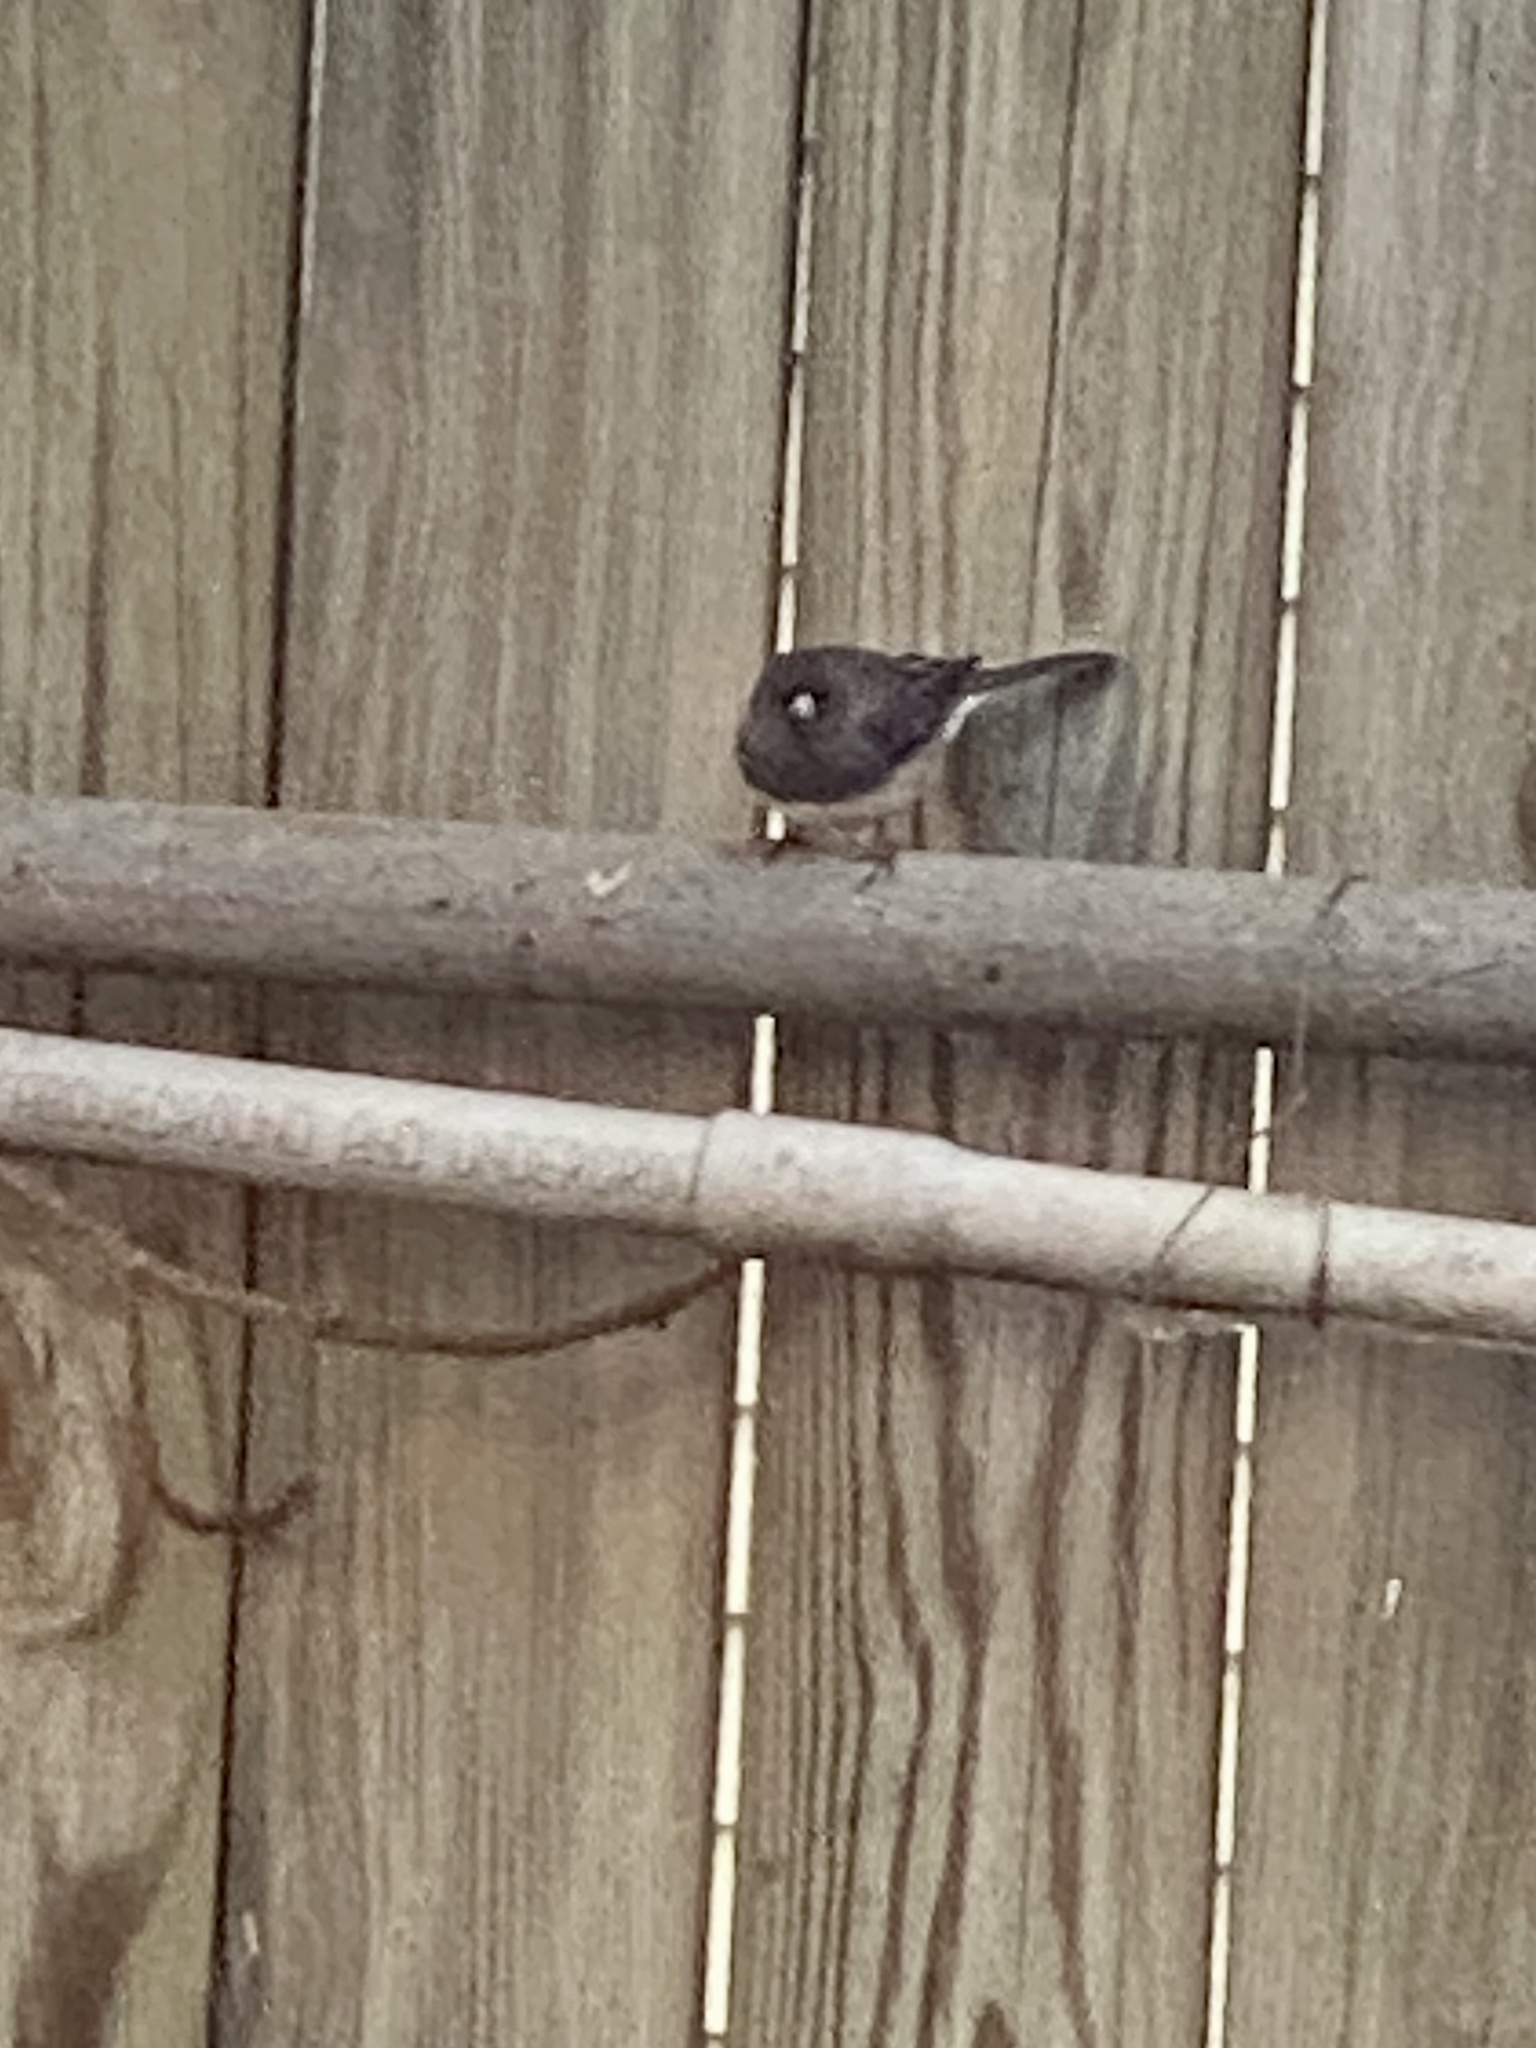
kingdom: Animalia
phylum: Chordata
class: Aves
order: Passeriformes
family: Passerellidae
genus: Junco
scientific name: Junco hyemalis
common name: Dark-eyed junco
